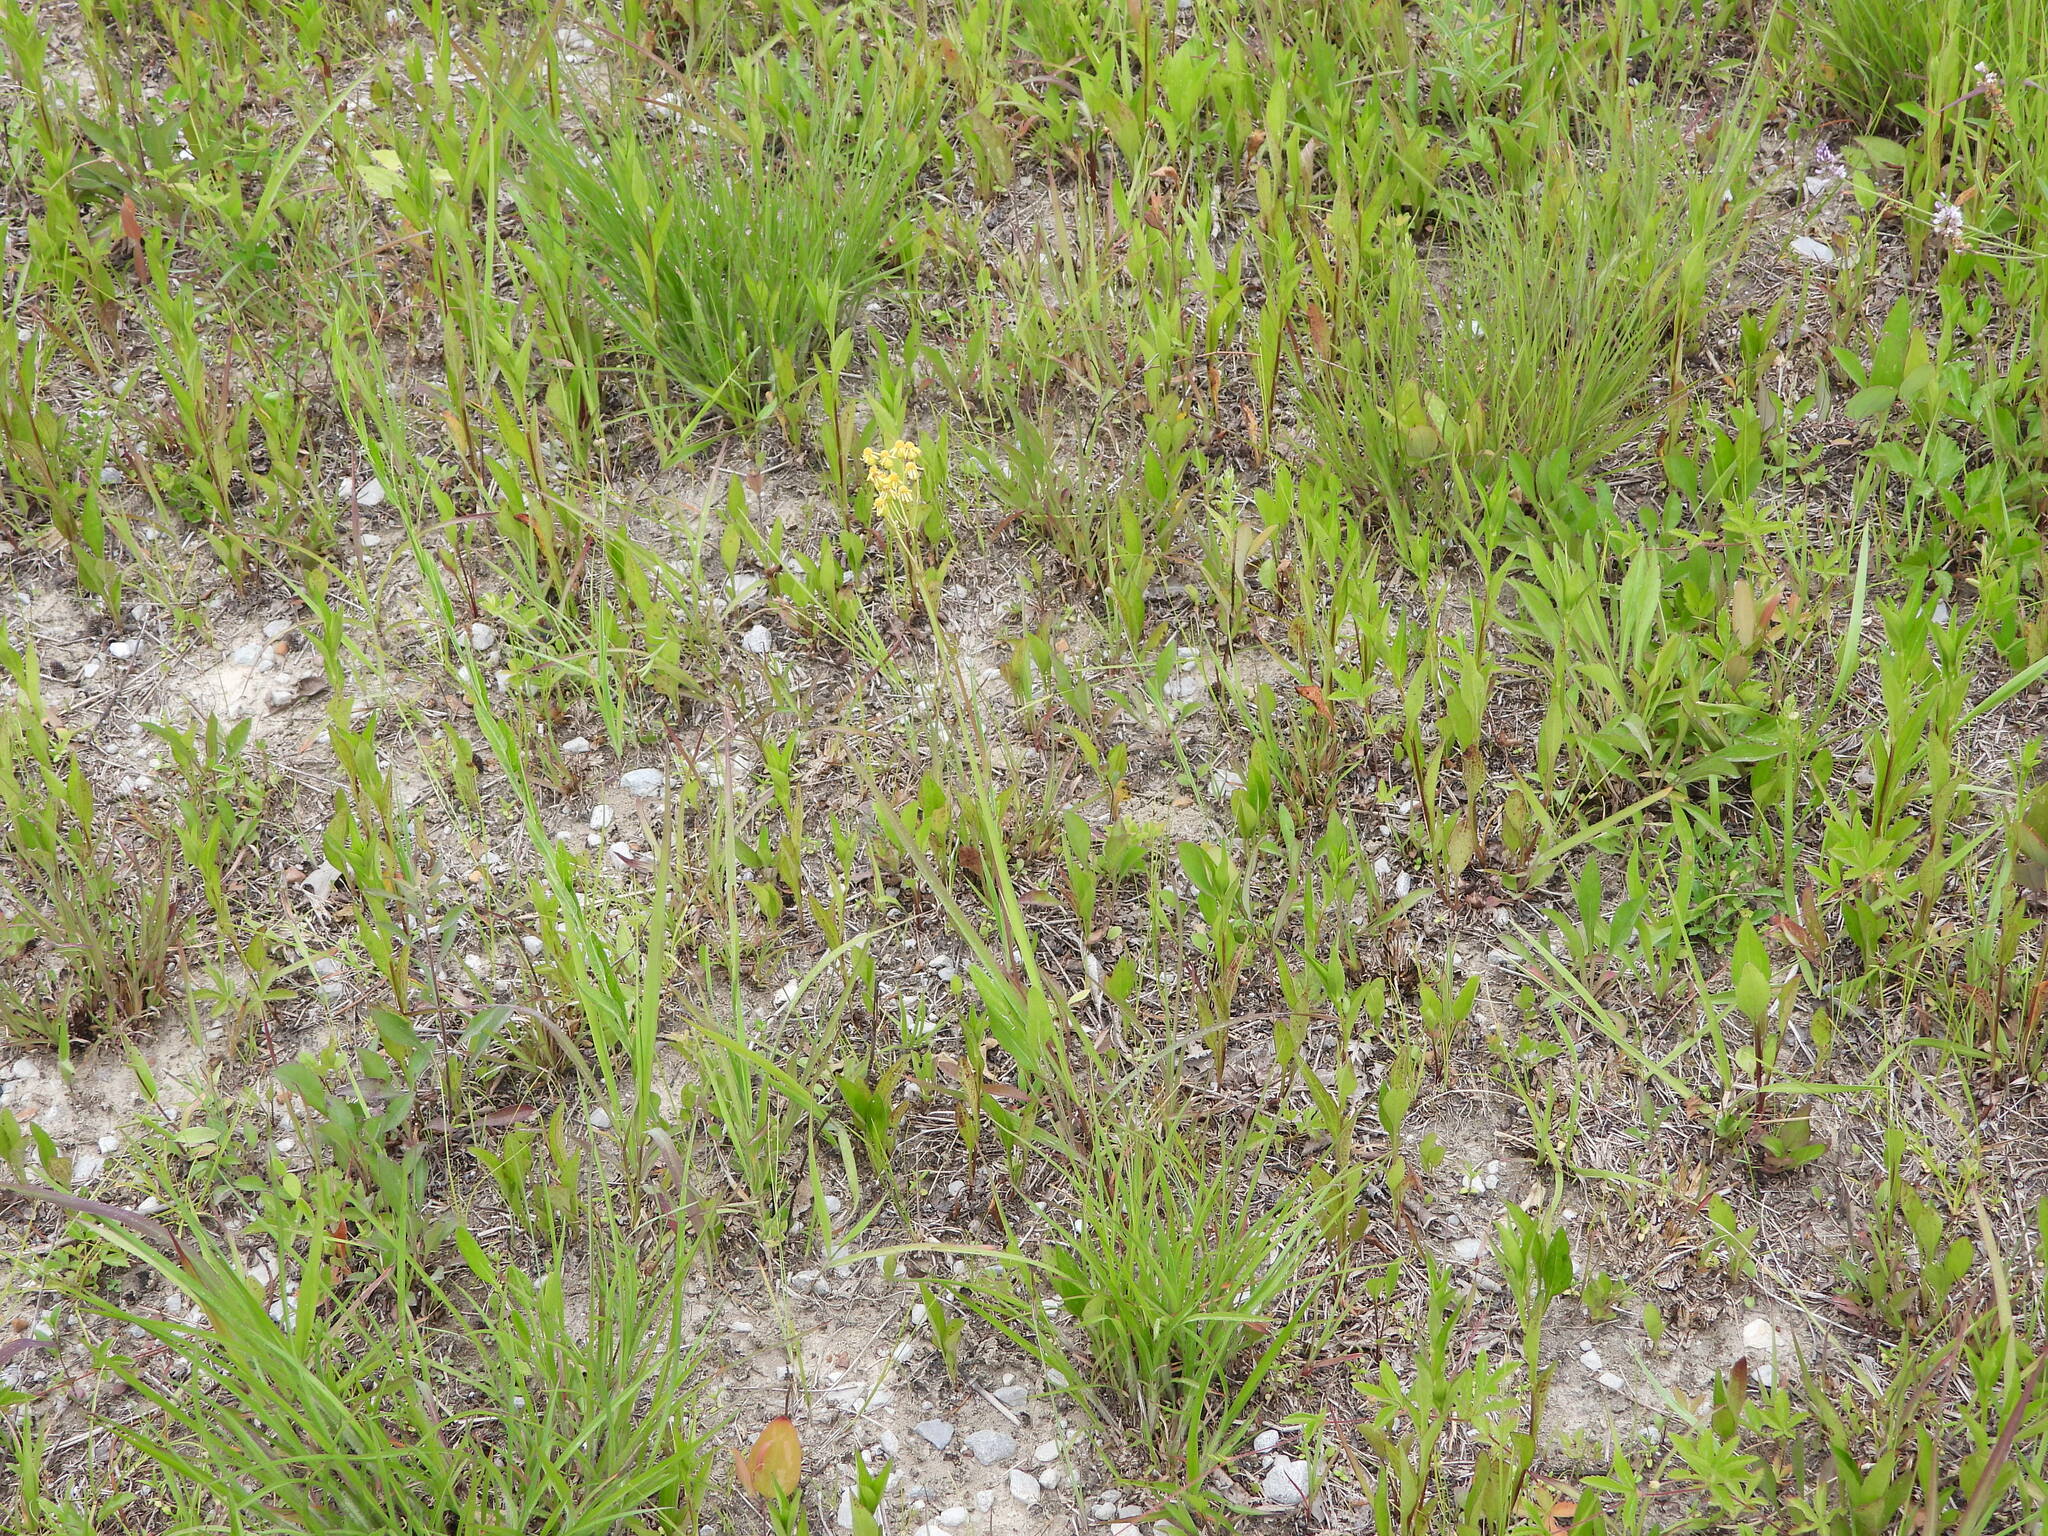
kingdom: Plantae
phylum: Tracheophyta
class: Magnoliopsida
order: Asterales
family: Asteraceae
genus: Packera
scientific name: Packera crawfordii
